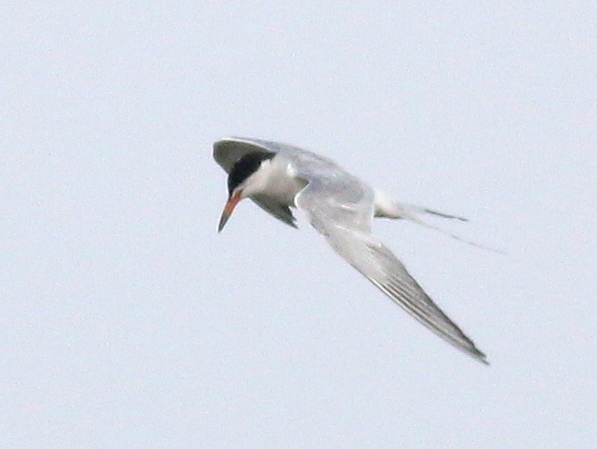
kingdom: Animalia
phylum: Chordata
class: Aves
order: Charadriiformes
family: Laridae
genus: Sterna
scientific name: Sterna hirundo
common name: Common tern
